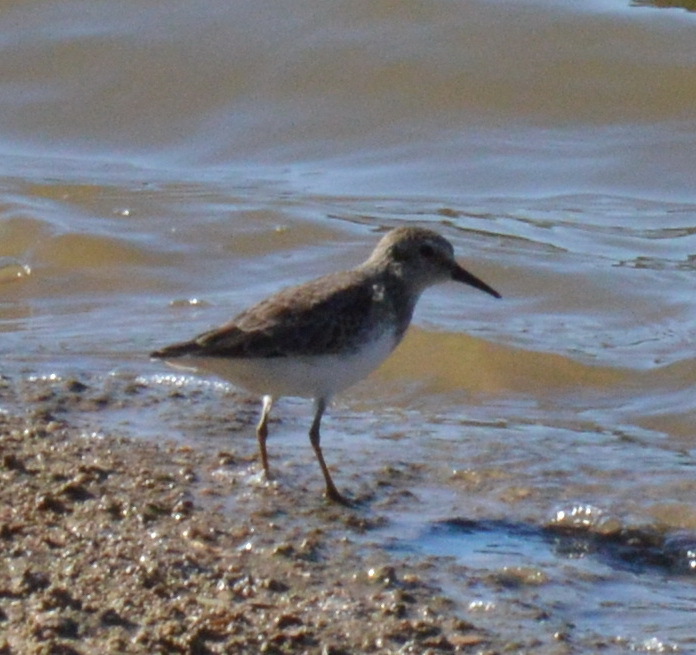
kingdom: Animalia
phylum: Chordata
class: Aves
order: Charadriiformes
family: Scolopacidae
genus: Calidris
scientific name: Calidris minutilla
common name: Least sandpiper
